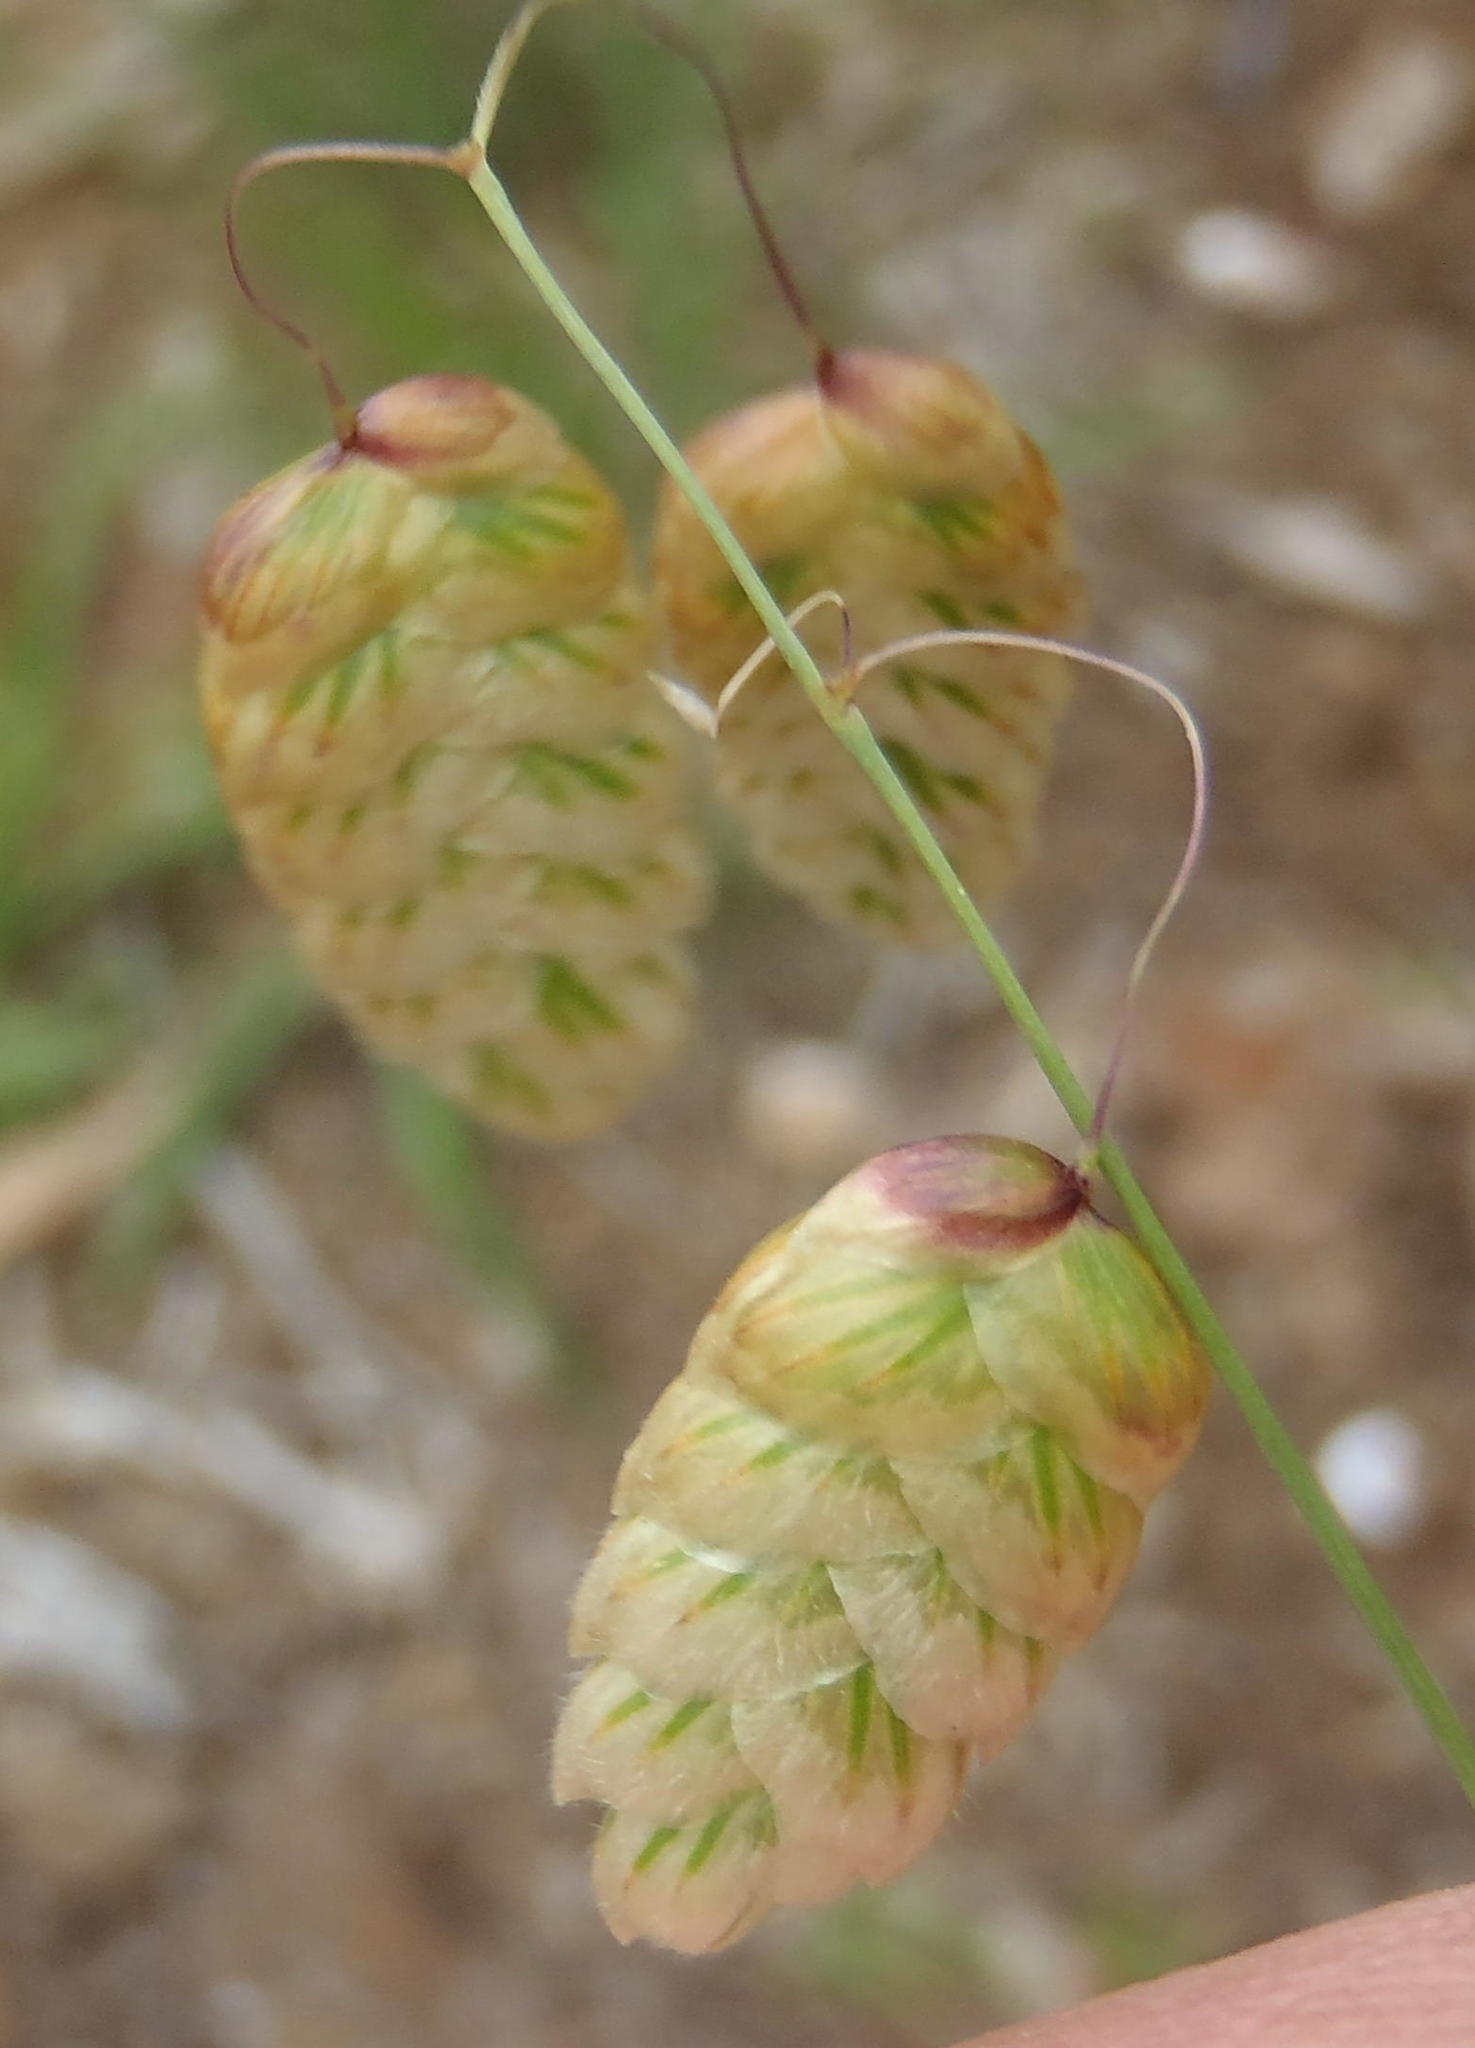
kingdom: Plantae
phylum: Tracheophyta
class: Liliopsida
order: Poales
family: Poaceae
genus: Briza
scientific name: Briza maxima
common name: Big quakinggrass
